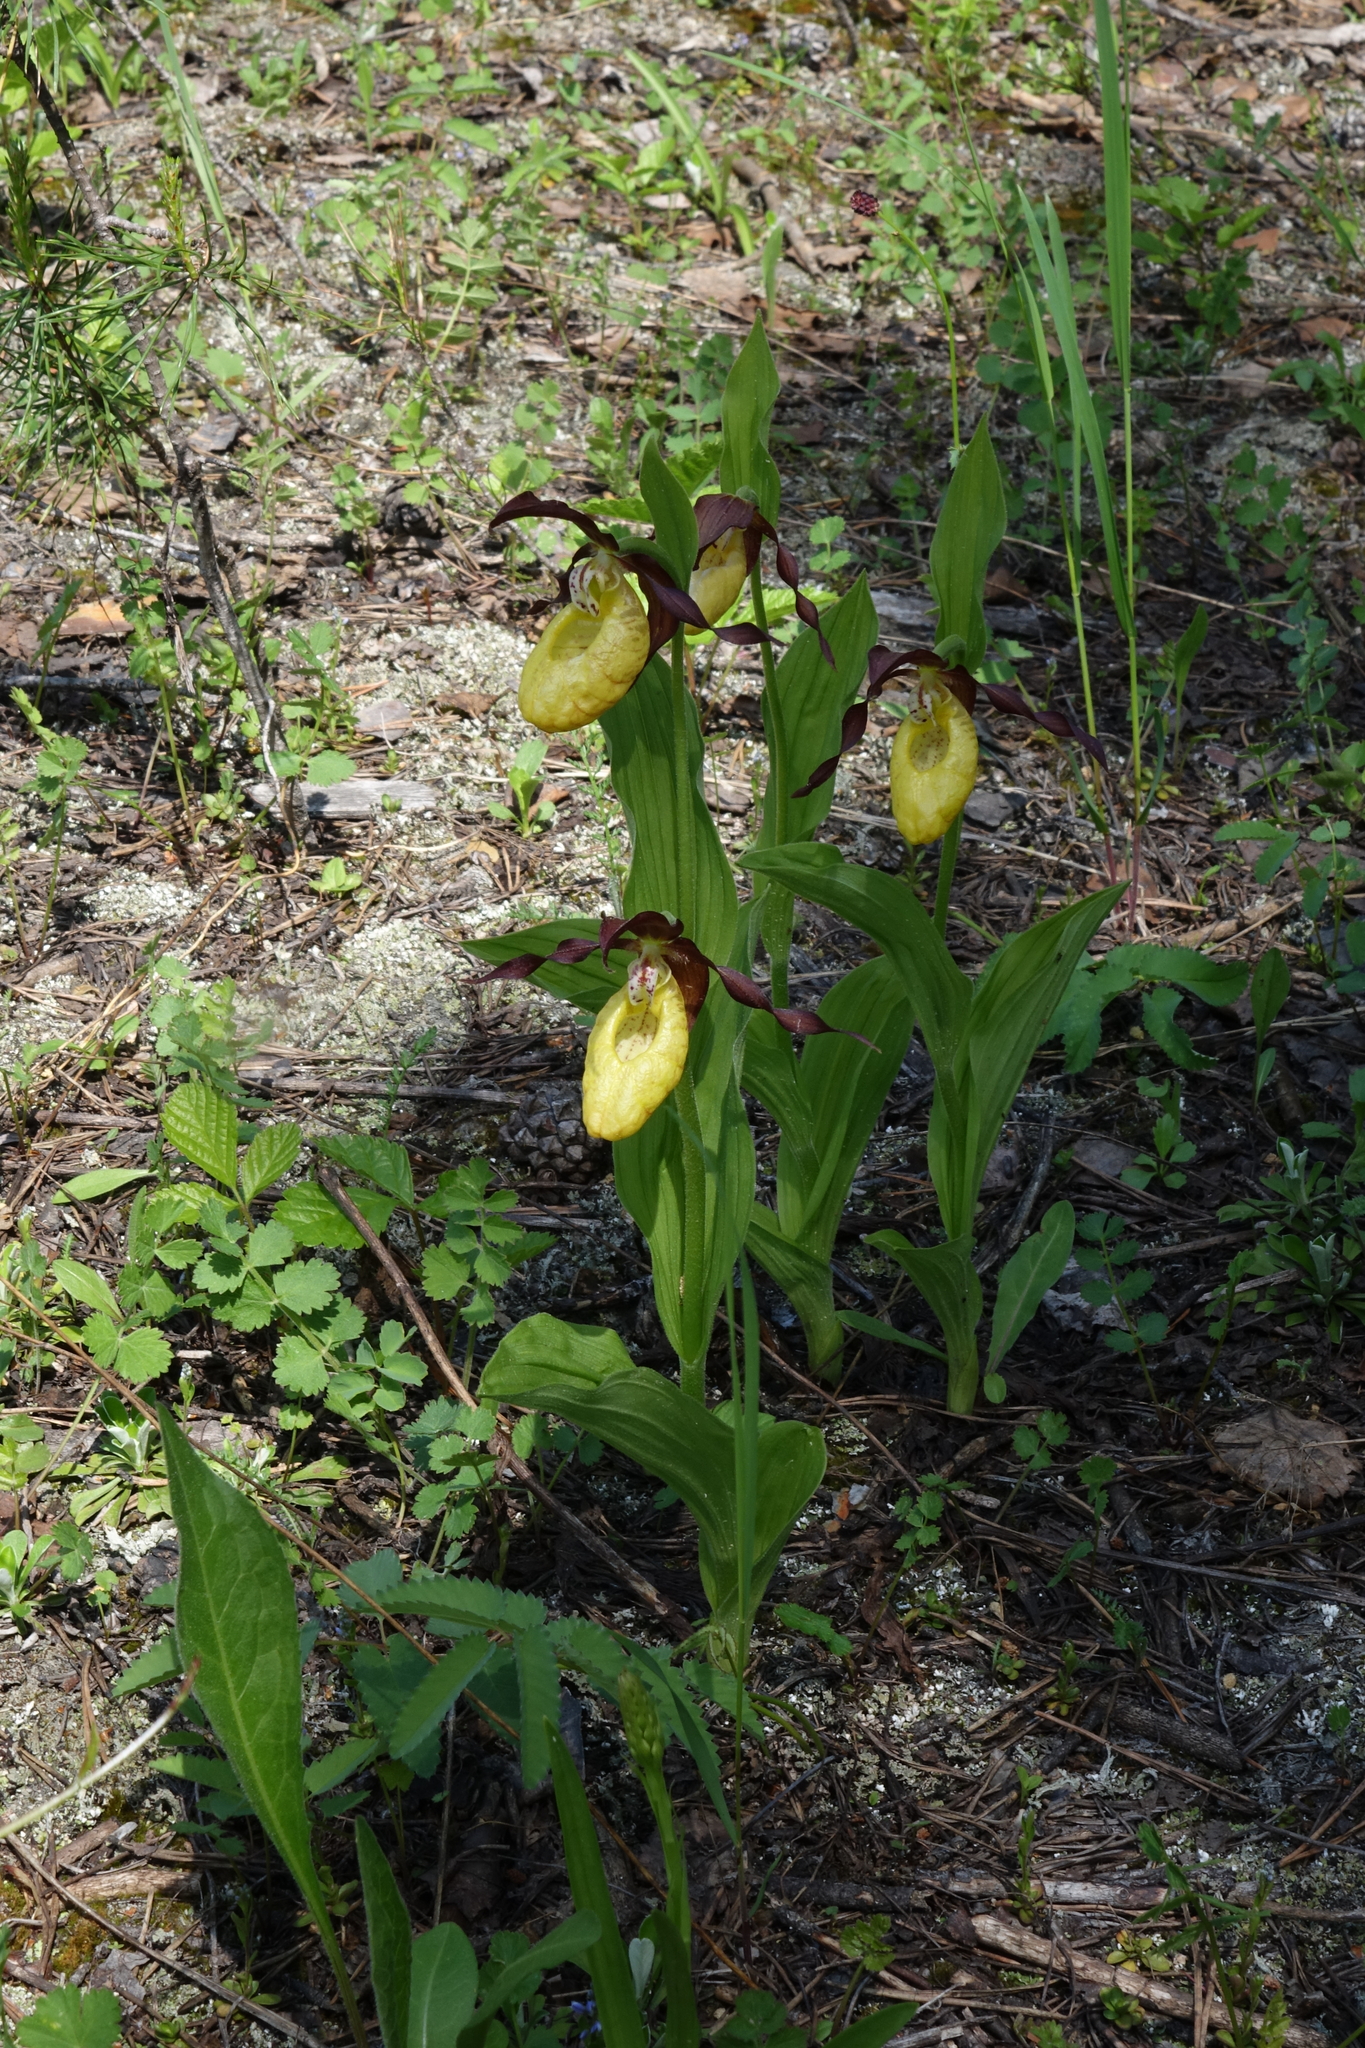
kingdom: Plantae
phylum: Tracheophyta
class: Liliopsida
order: Asparagales
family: Orchidaceae
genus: Cypripedium
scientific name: Cypripedium calceolus
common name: Lady's-slipper
